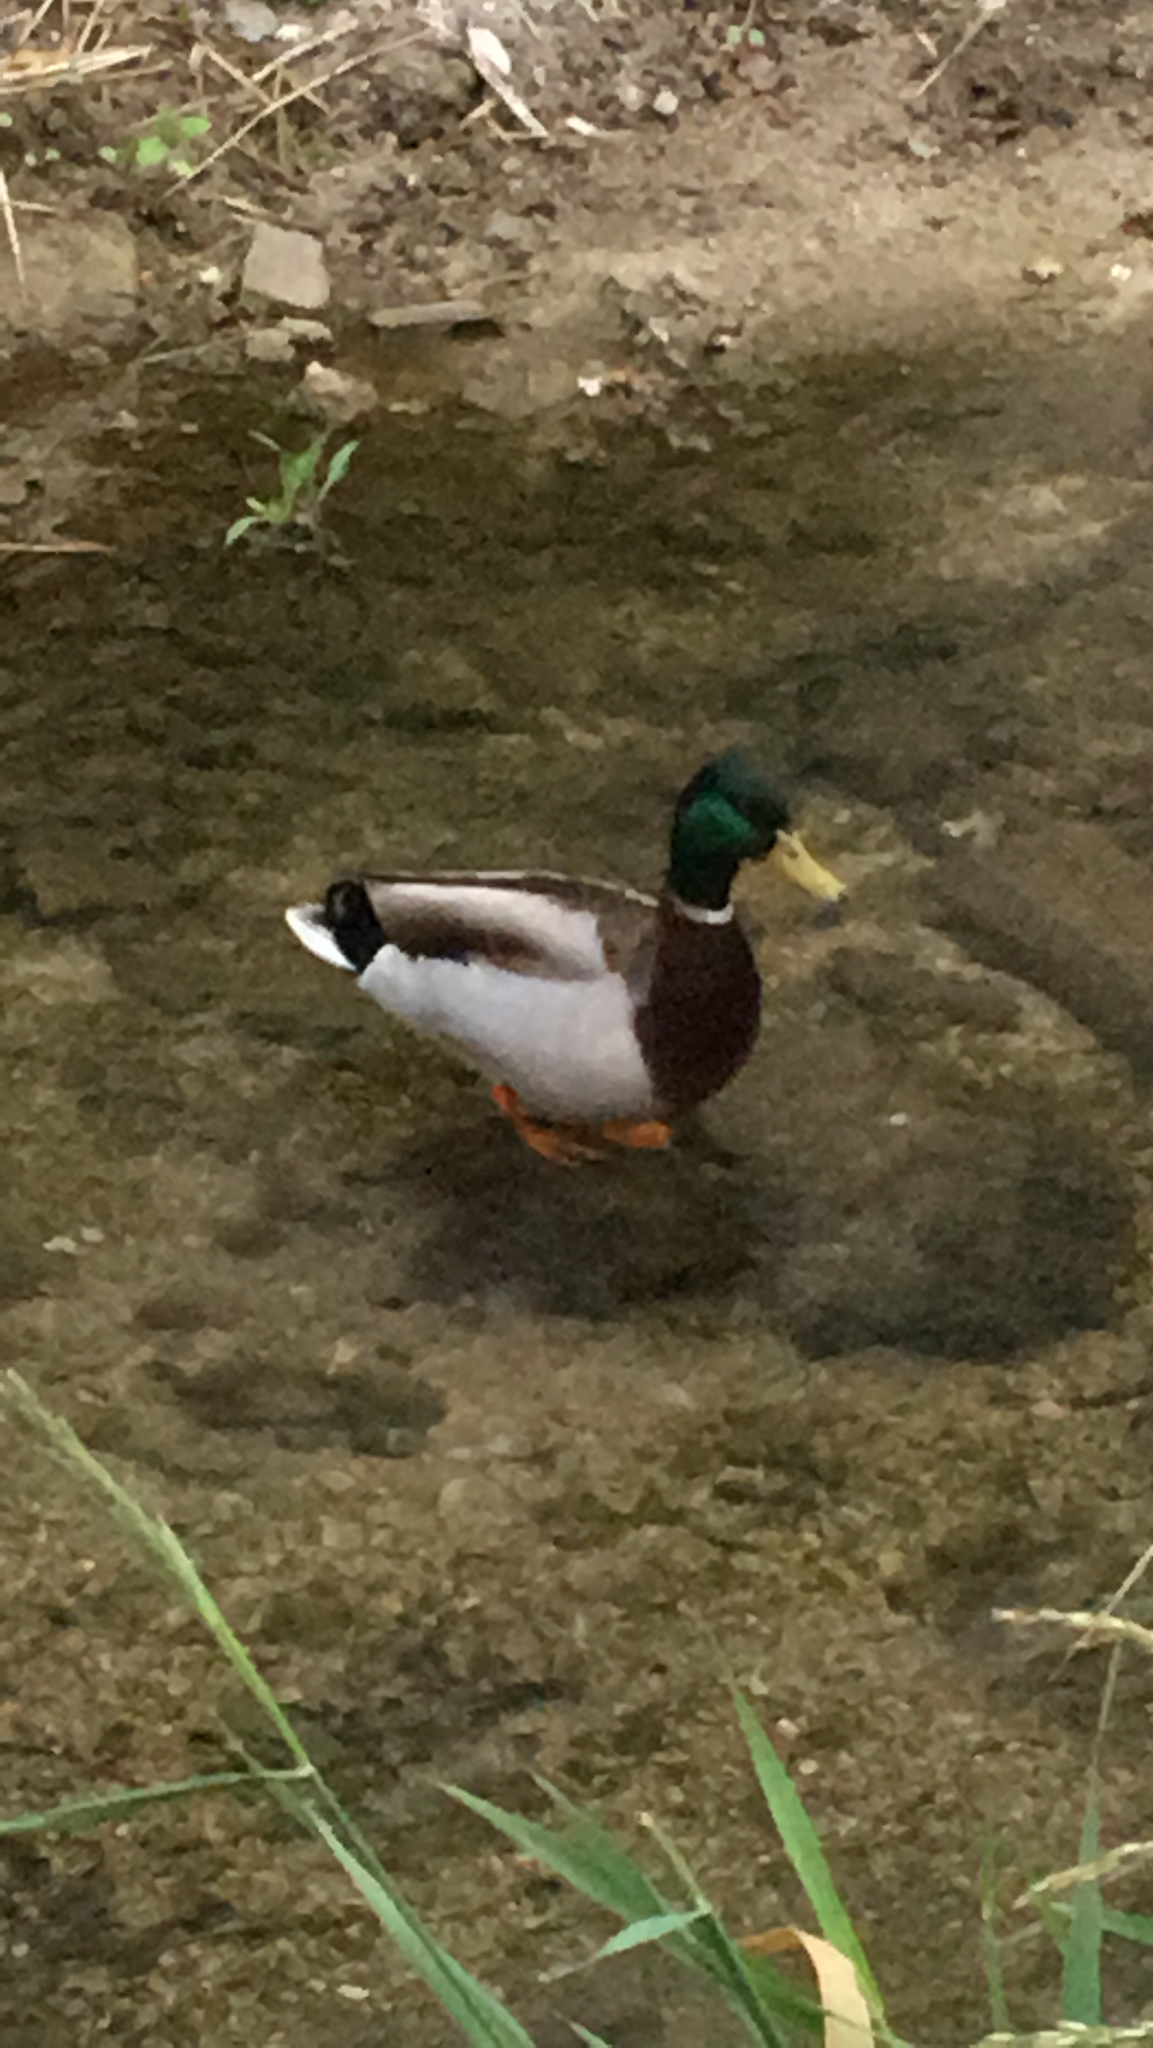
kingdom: Animalia
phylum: Chordata
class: Aves
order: Anseriformes
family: Anatidae
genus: Anas
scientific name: Anas platyrhynchos
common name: Mallard
